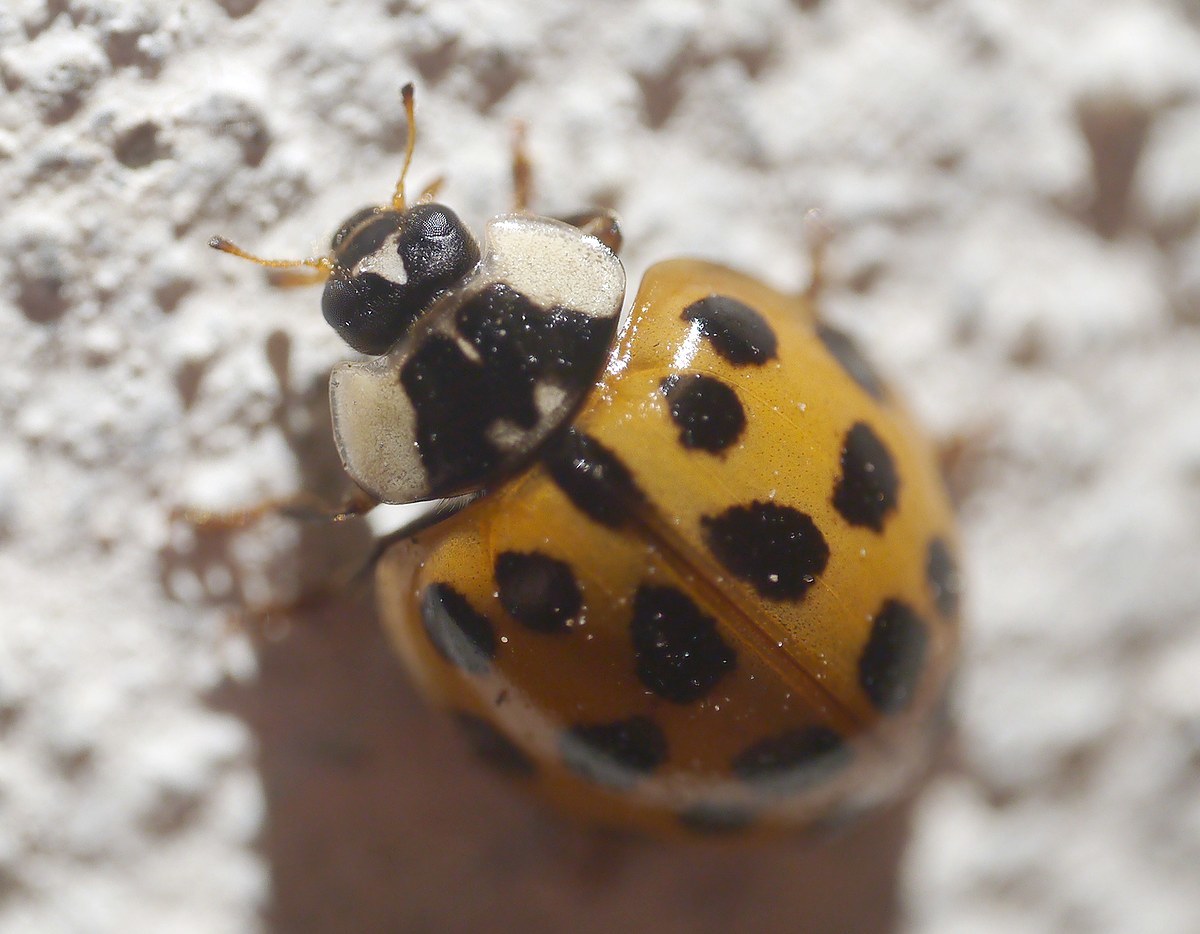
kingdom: Animalia
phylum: Arthropoda
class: Insecta
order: Coleoptera
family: Coccinellidae
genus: Harmonia
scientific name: Harmonia axyridis
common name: Harlequin ladybird
